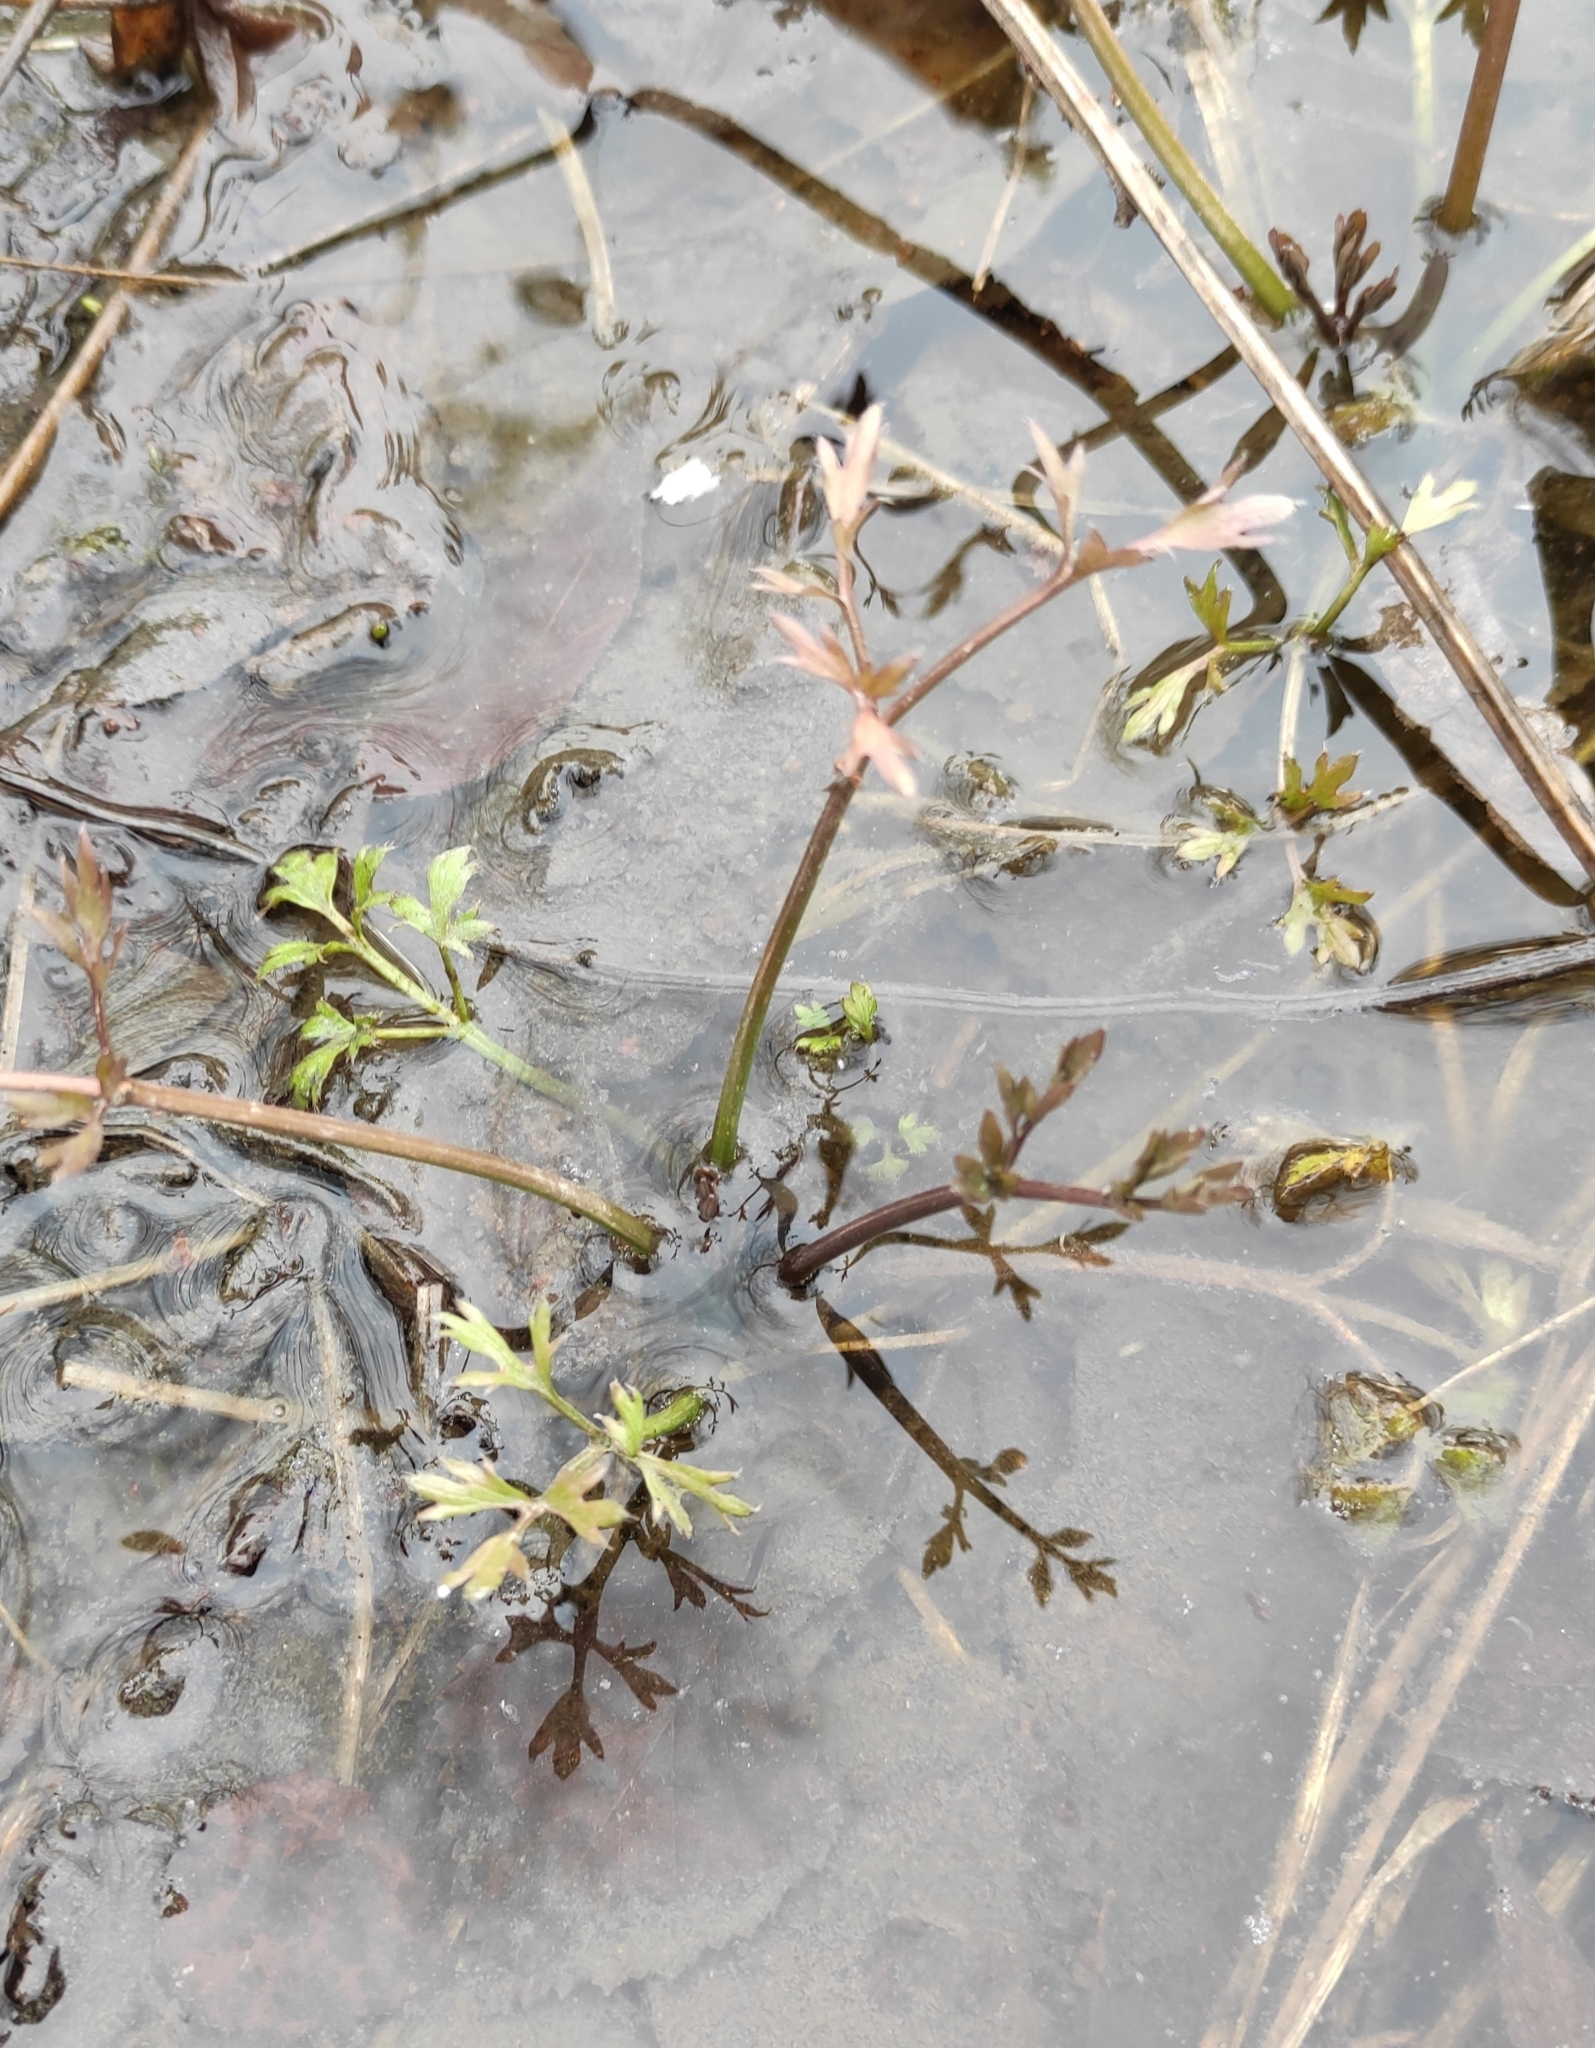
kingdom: Plantae
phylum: Tracheophyta
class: Magnoliopsida
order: Ranunculales
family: Ranunculaceae
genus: Ranunculus
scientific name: Ranunculus repens
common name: Creeping buttercup
